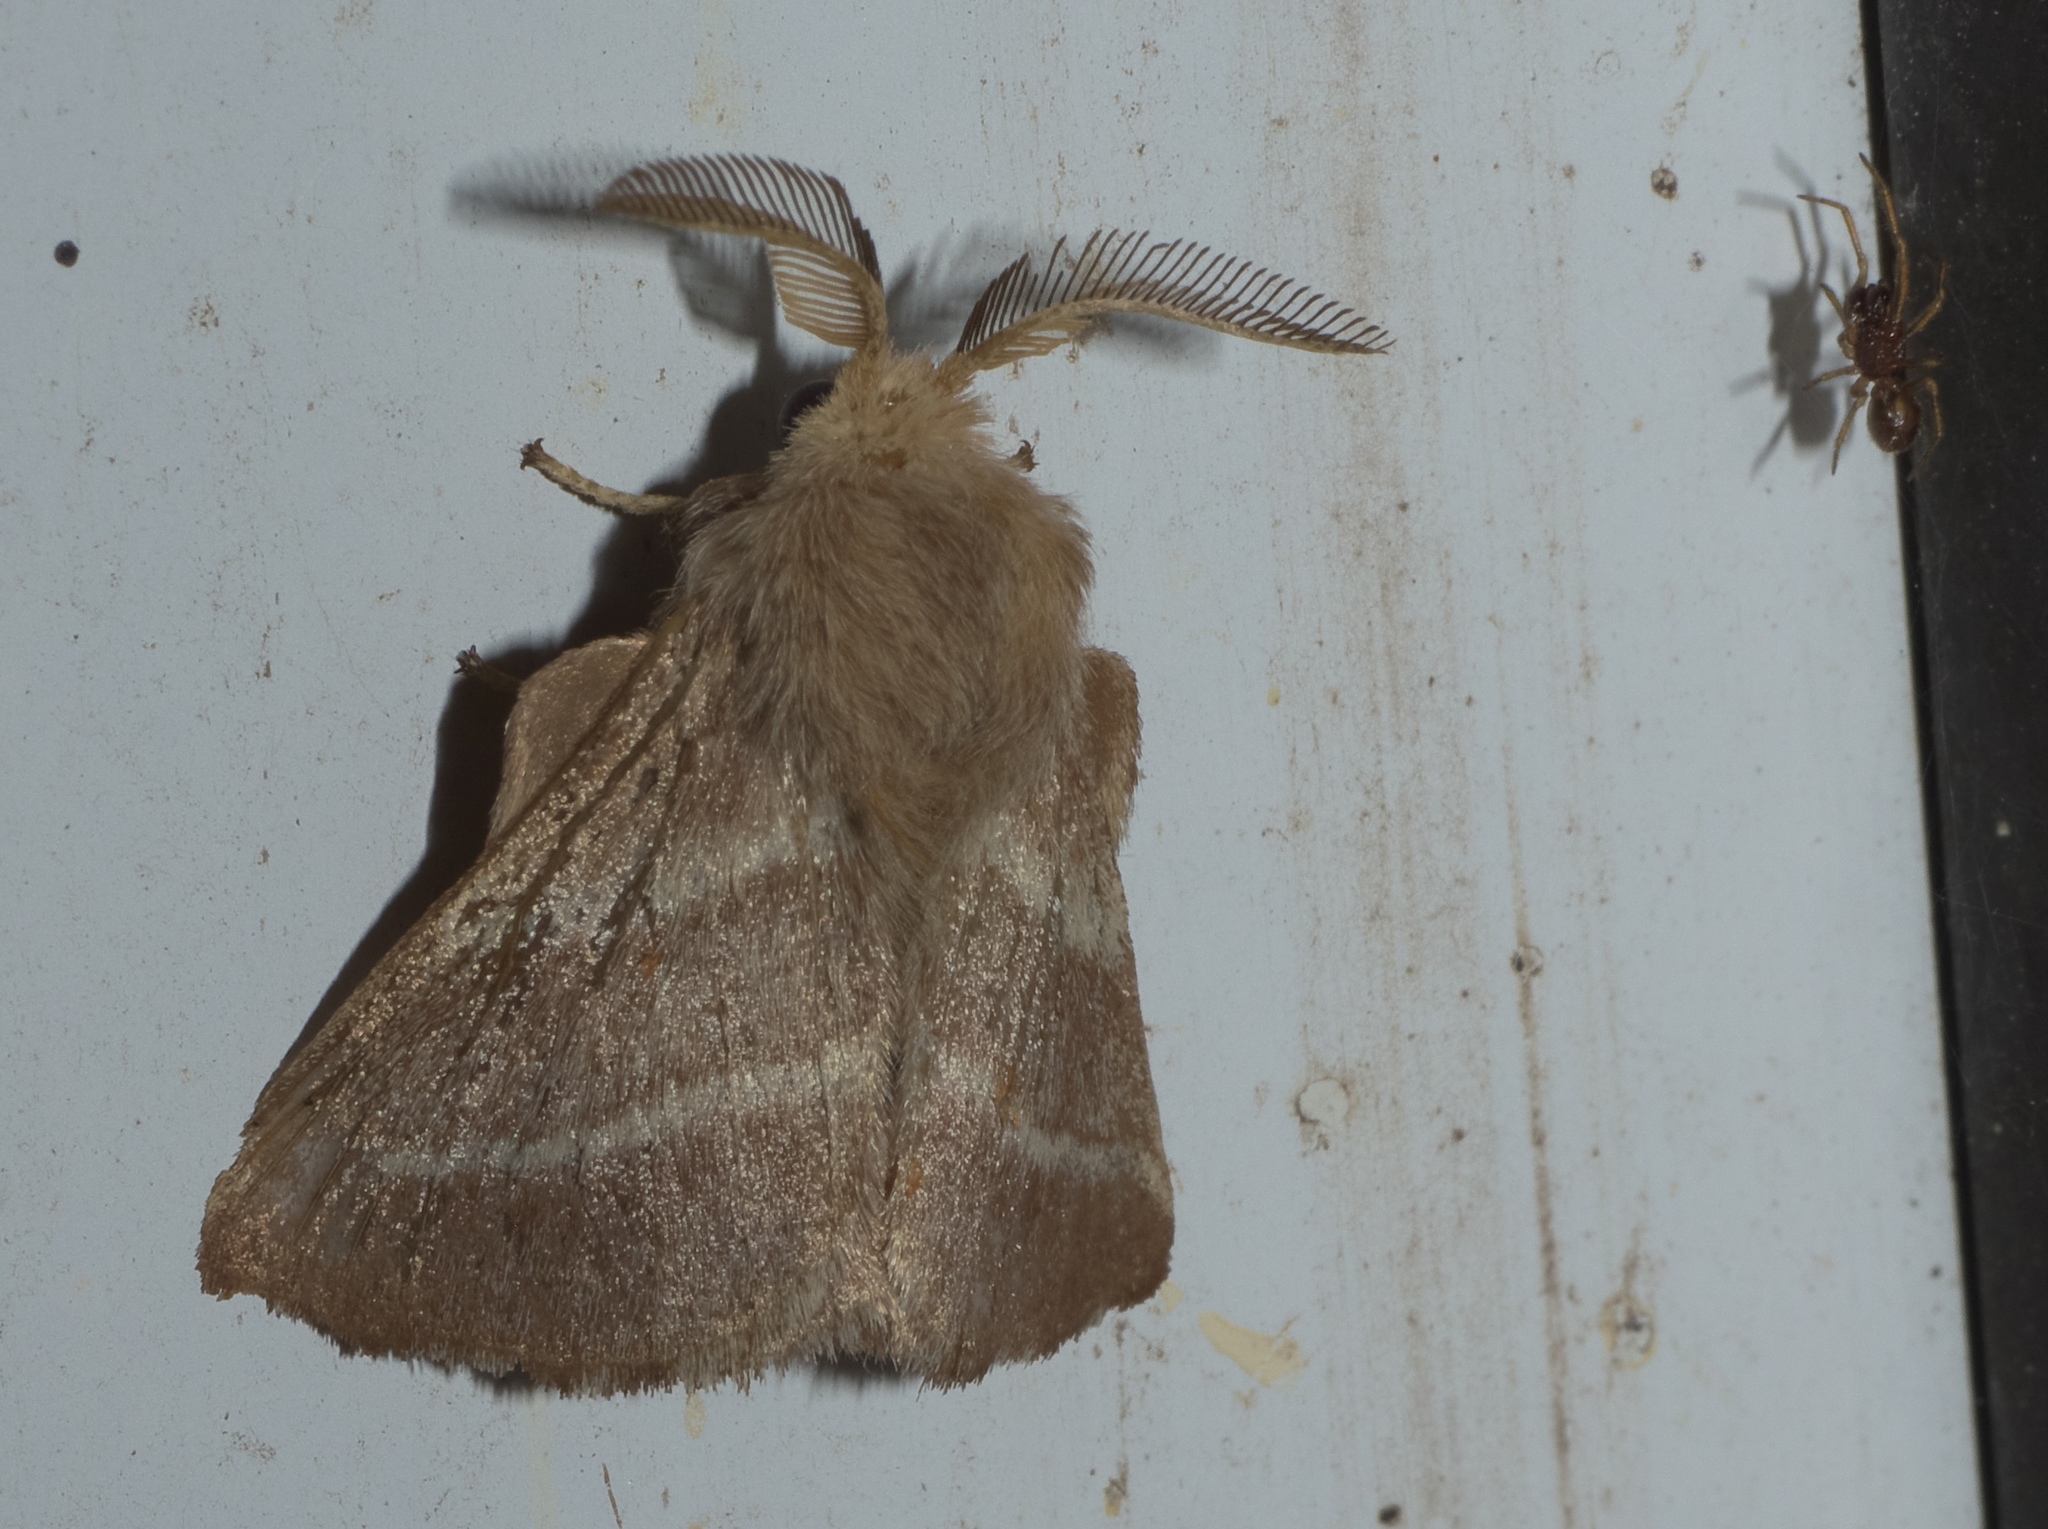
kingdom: Animalia
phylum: Arthropoda
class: Insecta
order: Lepidoptera
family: Lasiocampidae
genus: Malacosoma
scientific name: Malacosoma americana
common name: Eastern tent caterpillar moth
